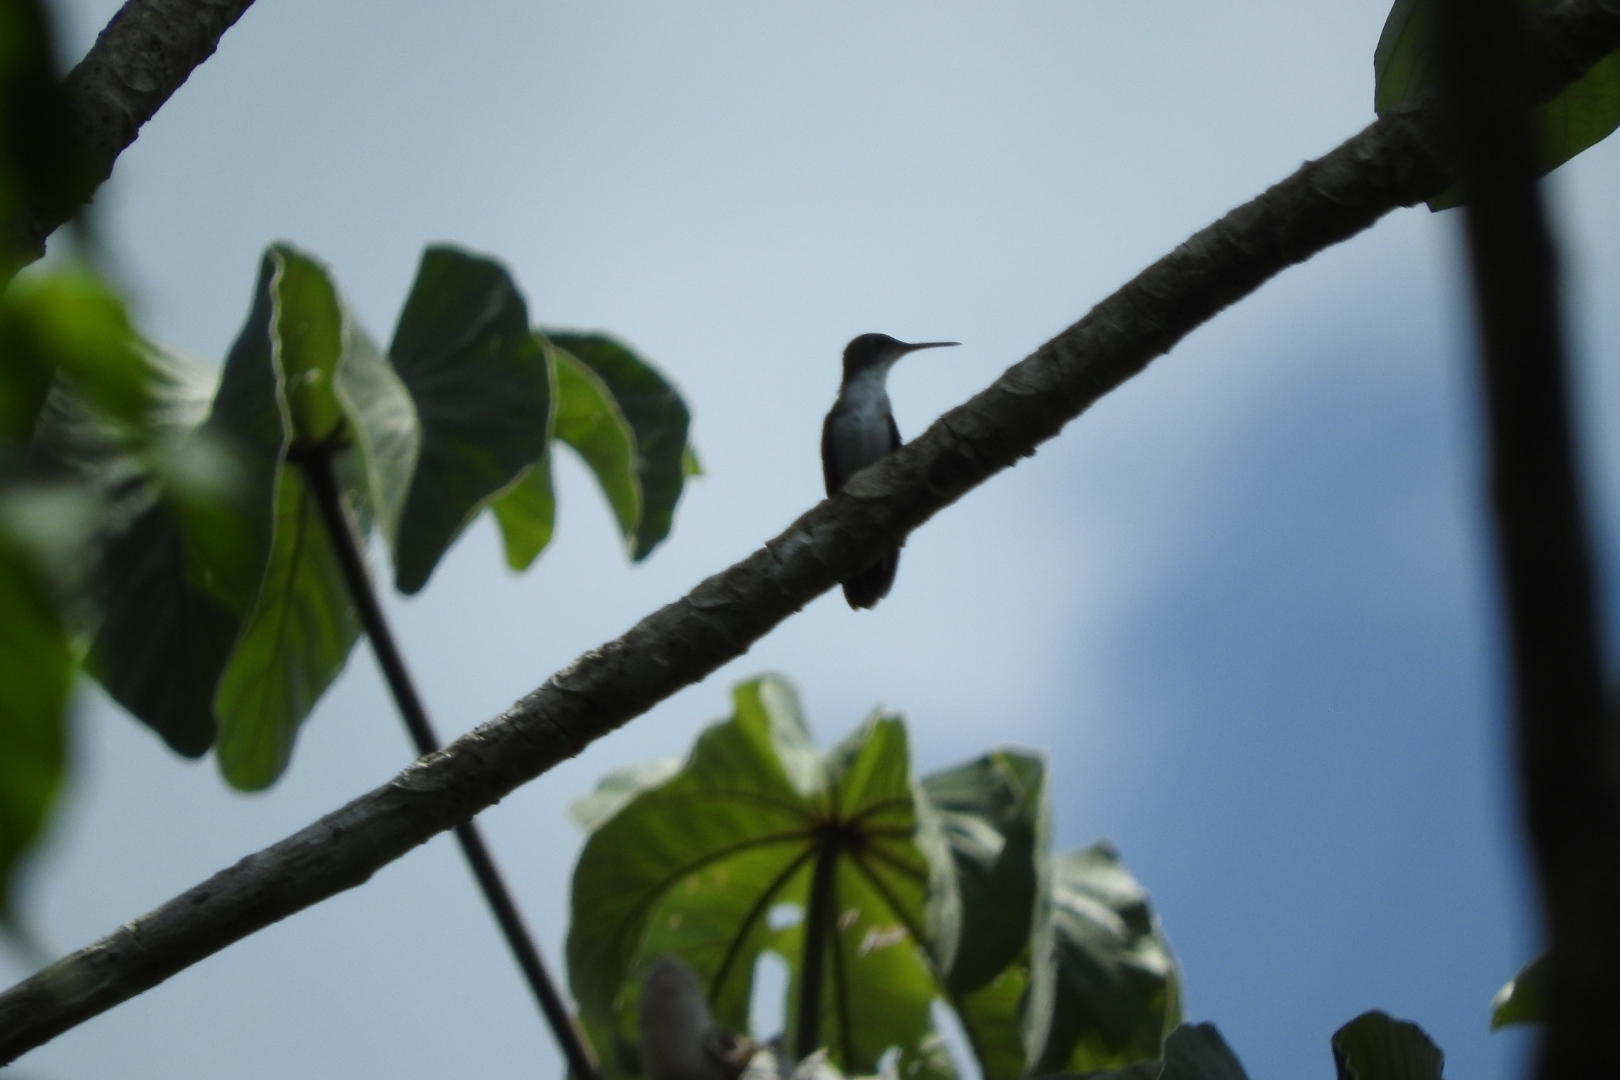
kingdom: Animalia
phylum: Chordata
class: Aves
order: Apodiformes
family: Trochilidae
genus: Chlorestes
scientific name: Chlorestes candida
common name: White-bellied emerald
